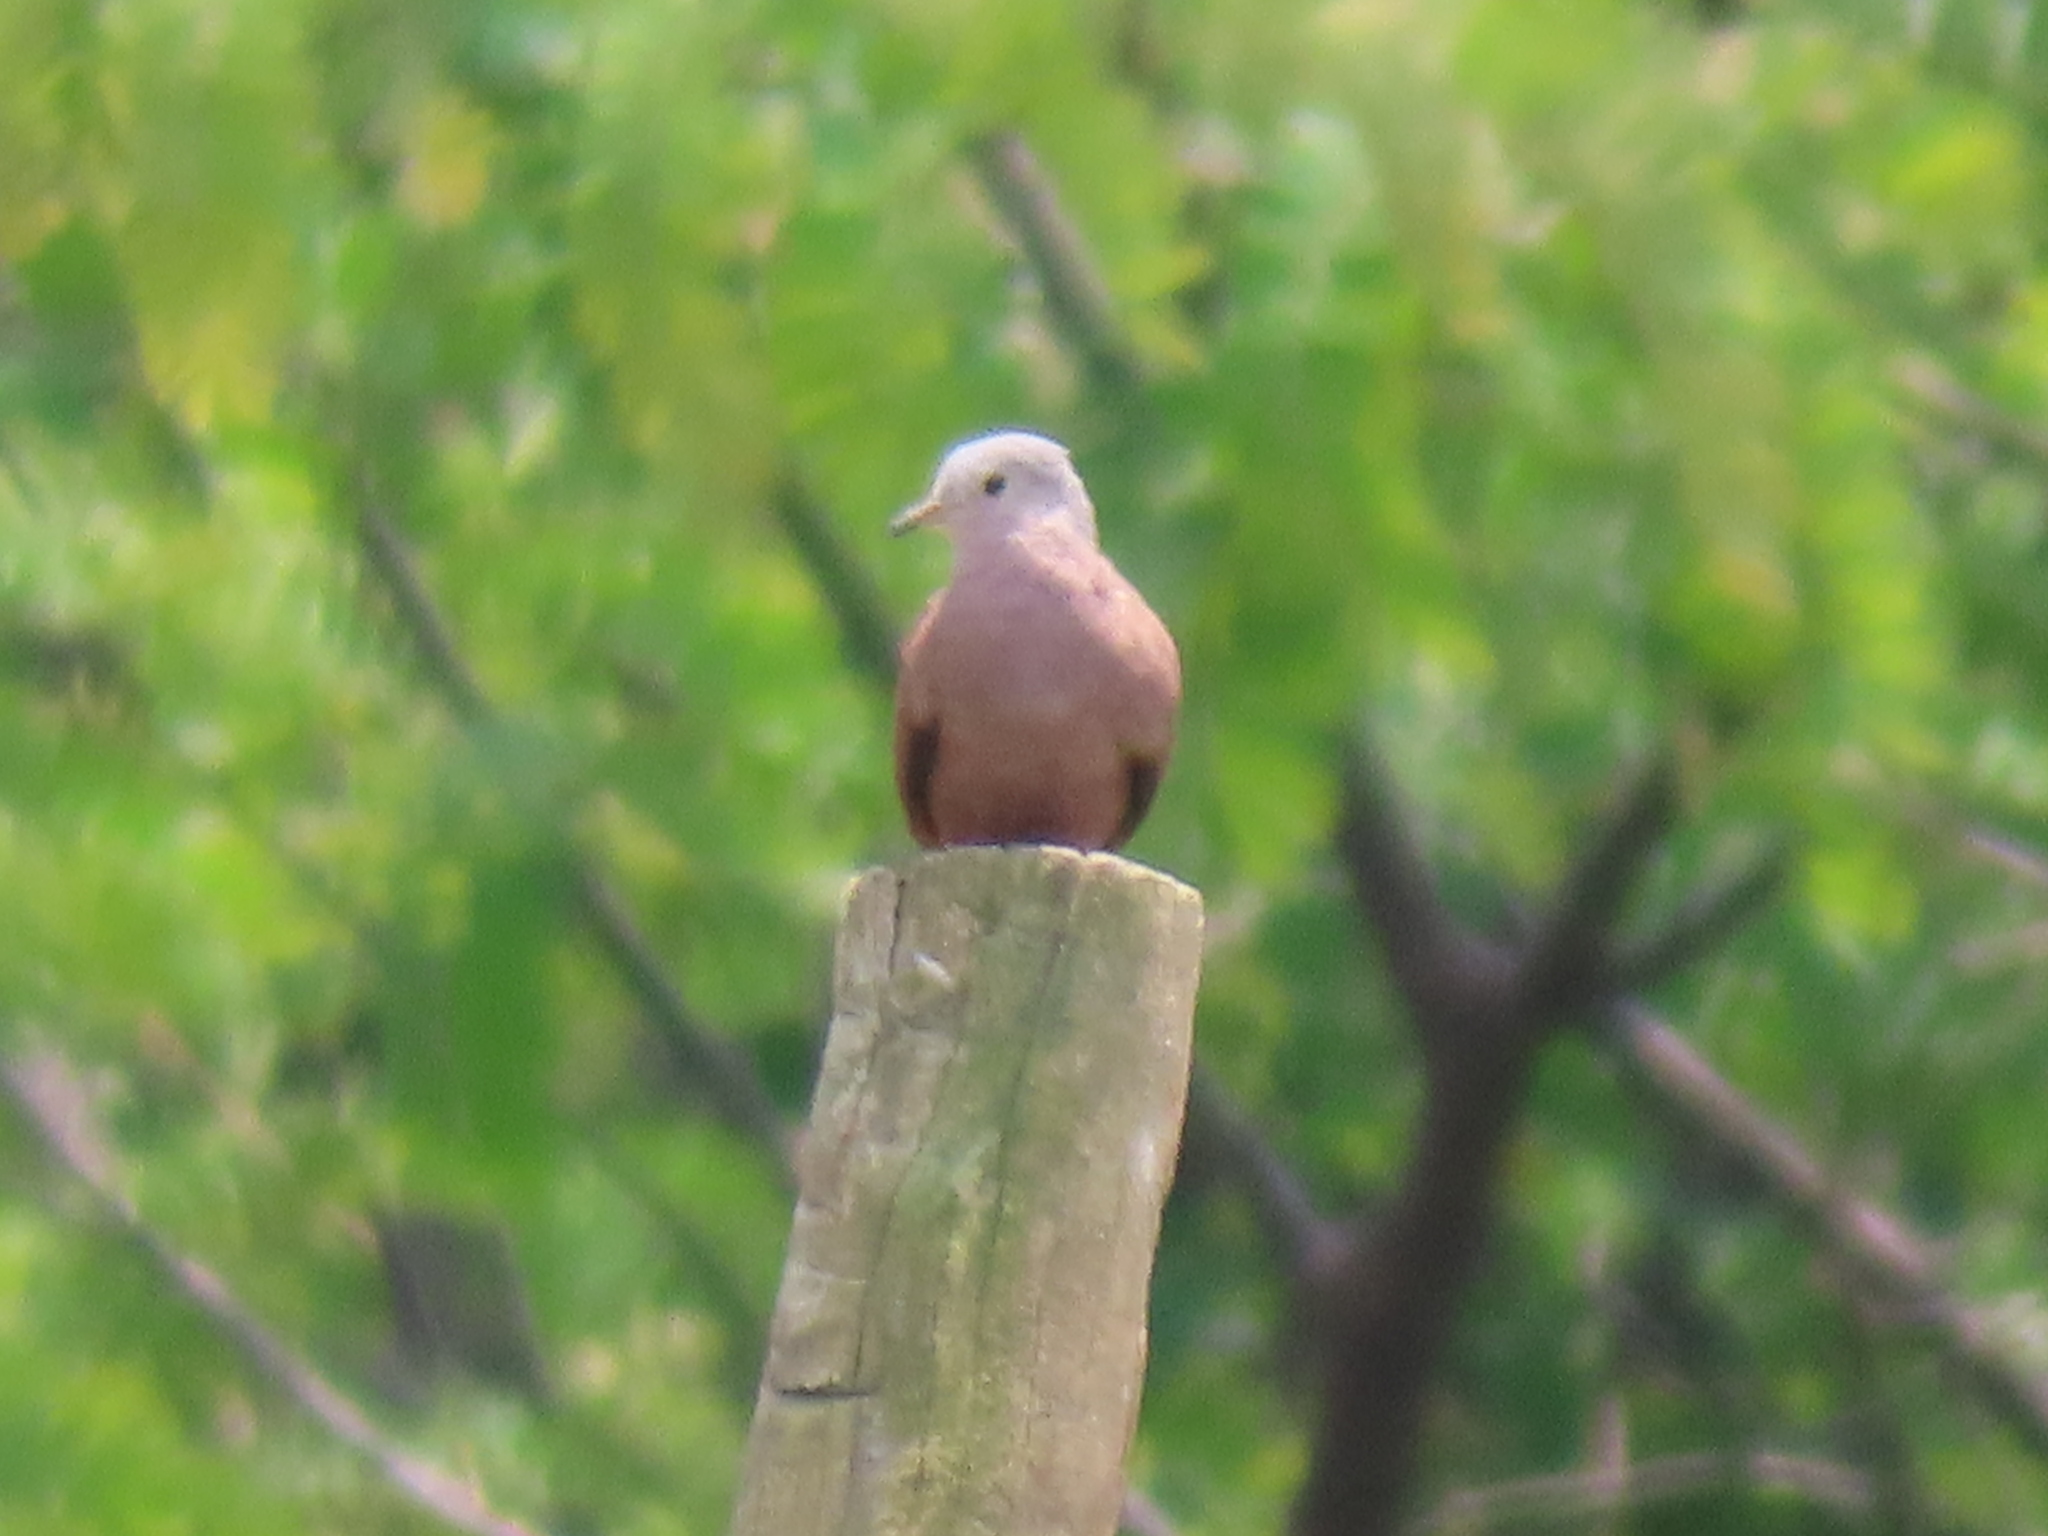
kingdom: Animalia
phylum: Chordata
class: Aves
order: Columbiformes
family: Columbidae
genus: Columbina
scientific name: Columbina talpacoti
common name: Ruddy ground dove
